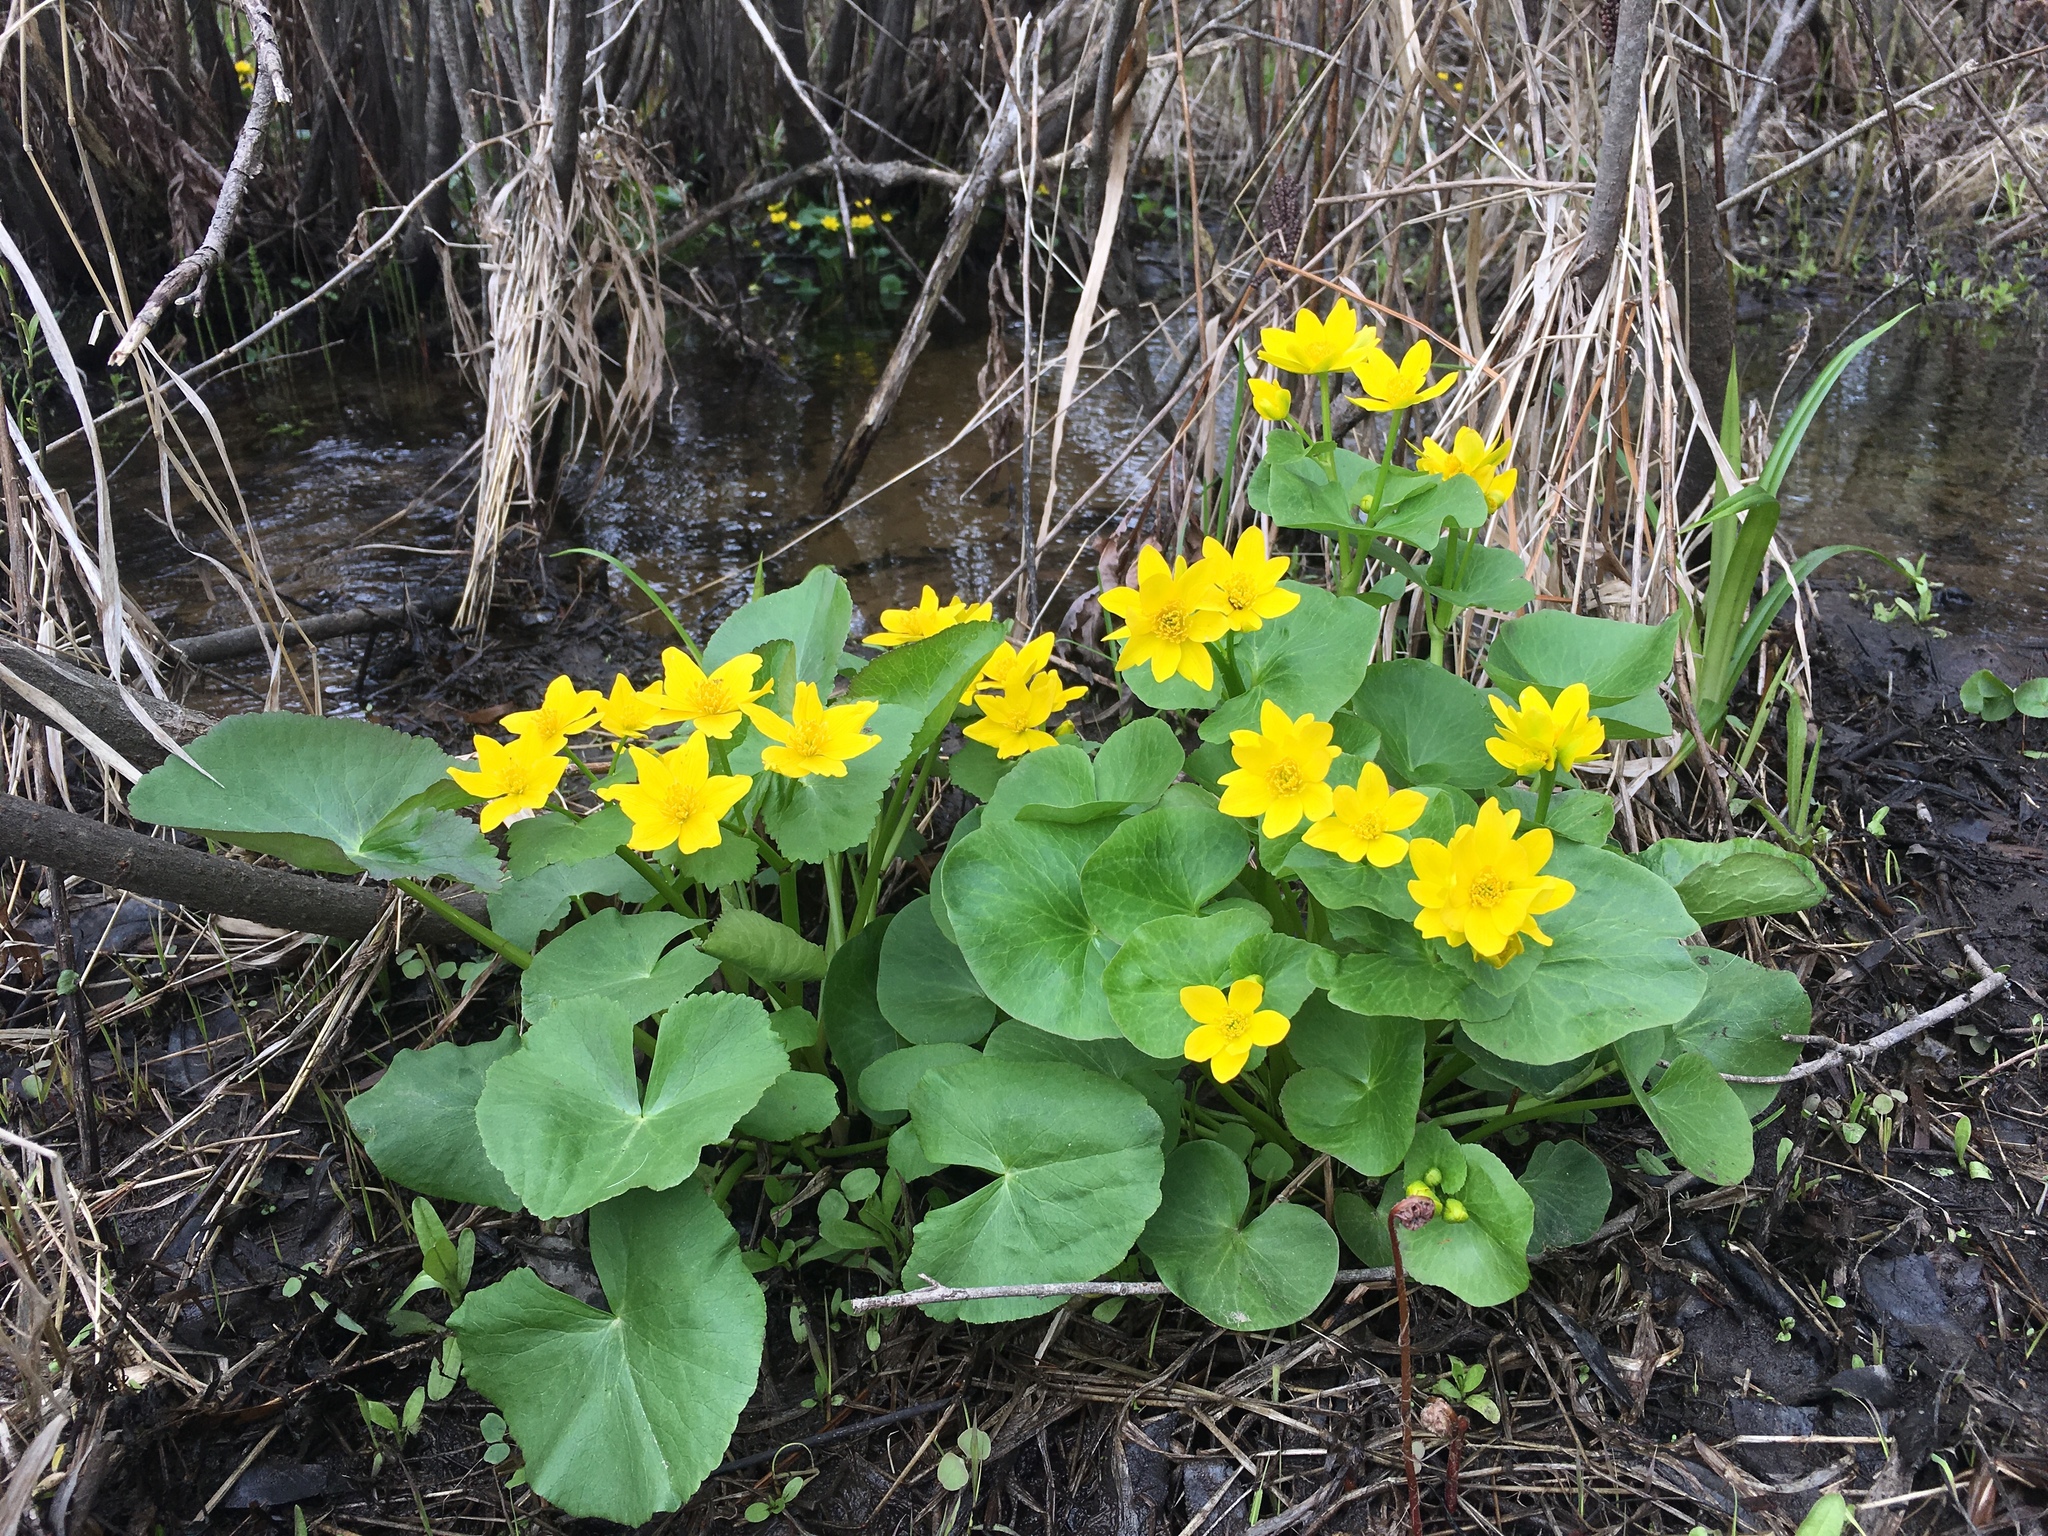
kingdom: Plantae
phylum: Tracheophyta
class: Magnoliopsida
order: Ranunculales
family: Ranunculaceae
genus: Caltha
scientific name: Caltha palustris
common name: Marsh marigold
